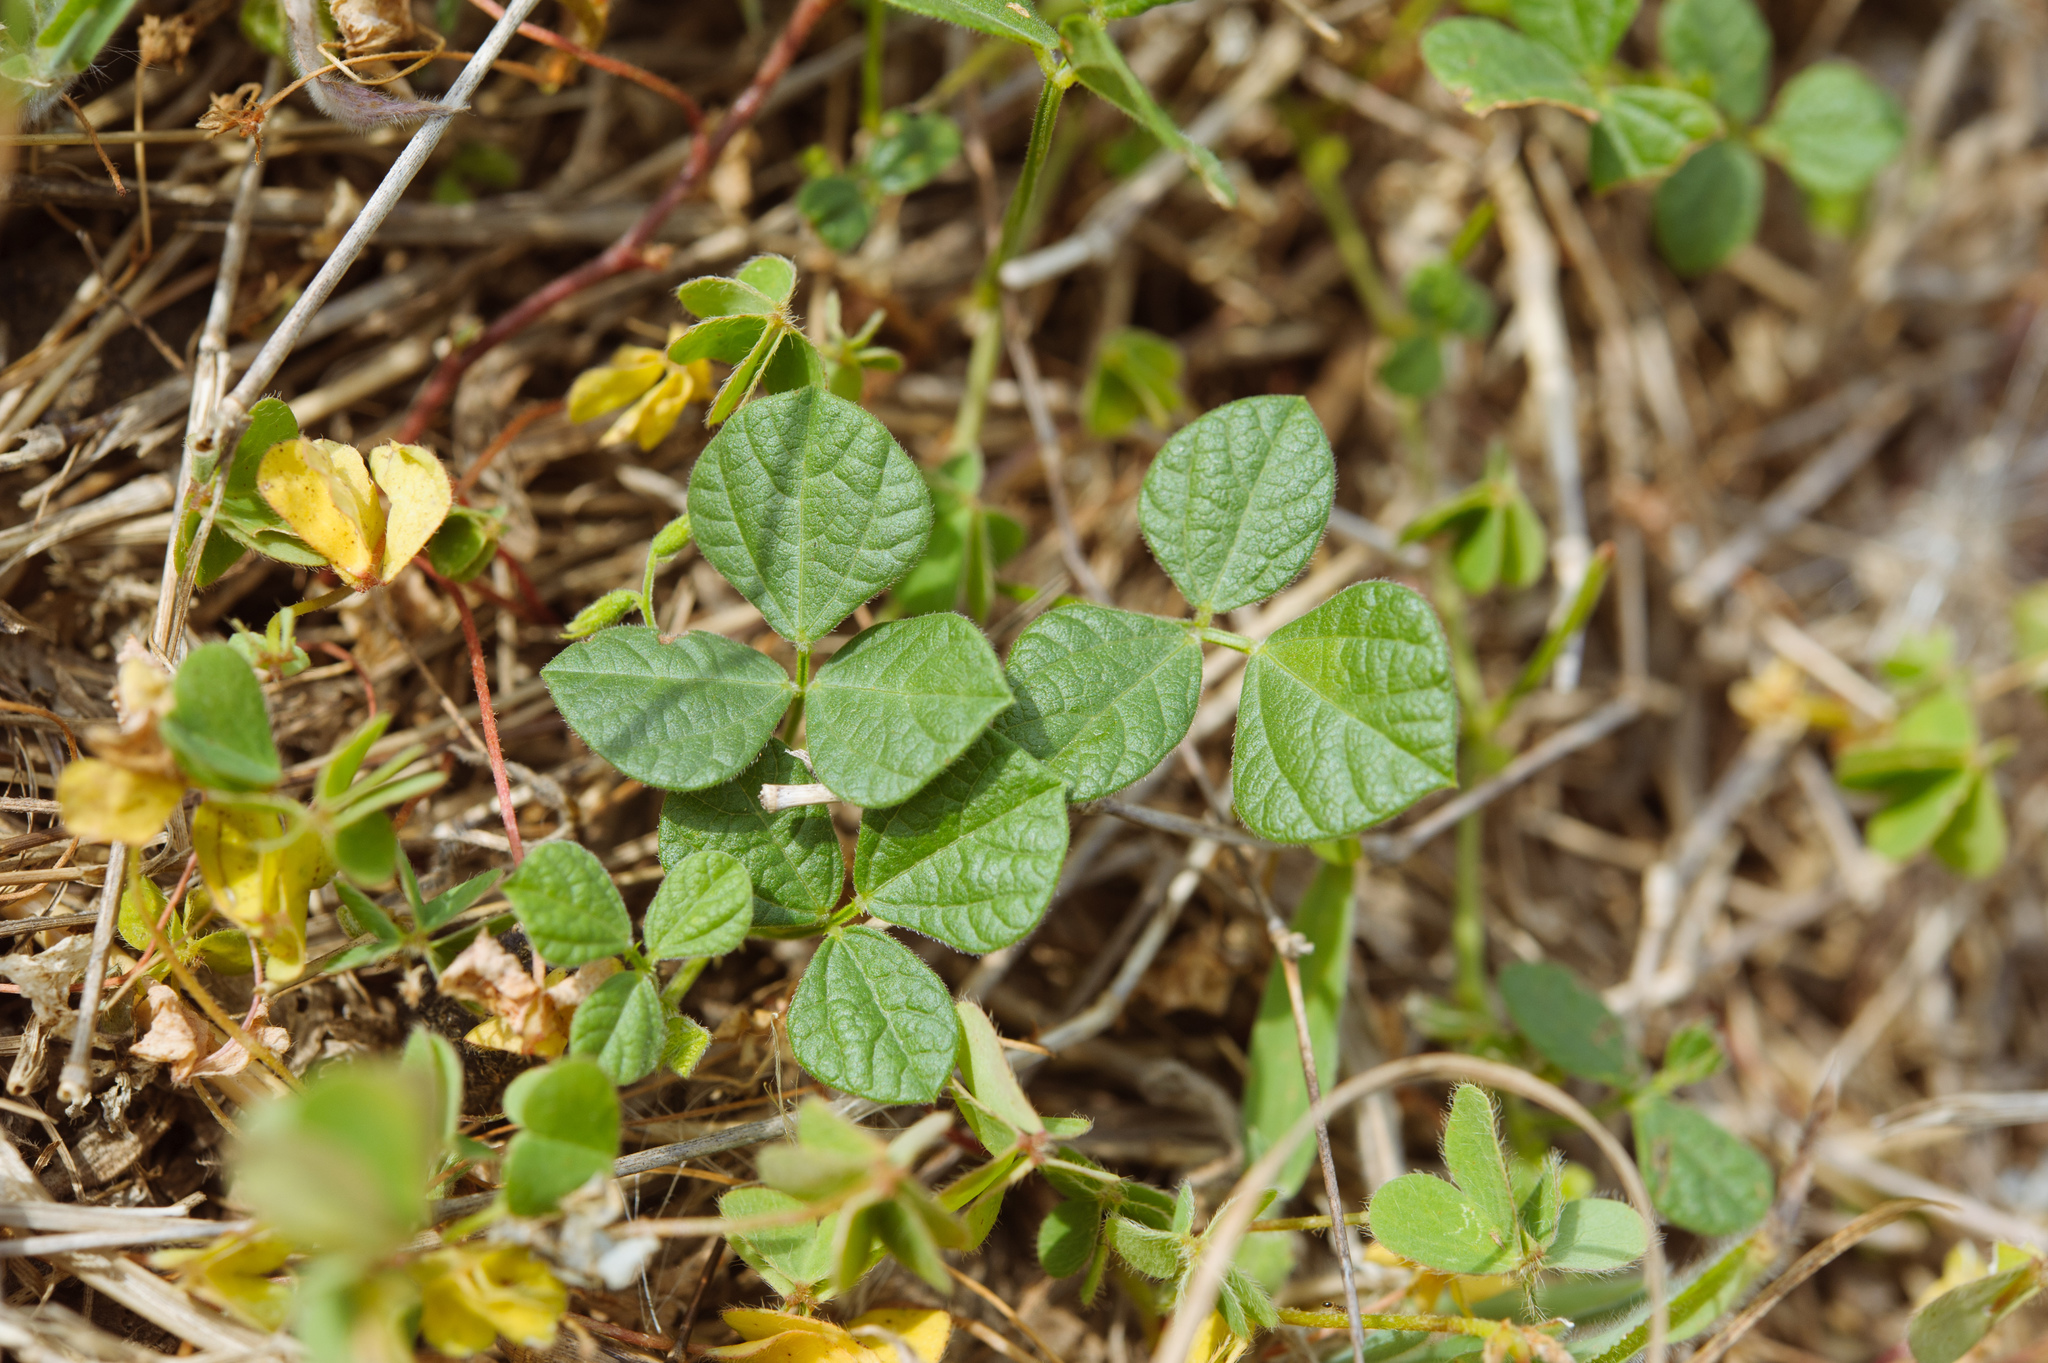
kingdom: Plantae
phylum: Tracheophyta
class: Magnoliopsida
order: Fabales
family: Fabaceae
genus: Rhynchosia
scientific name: Rhynchosia minima
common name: Least snoutbean
